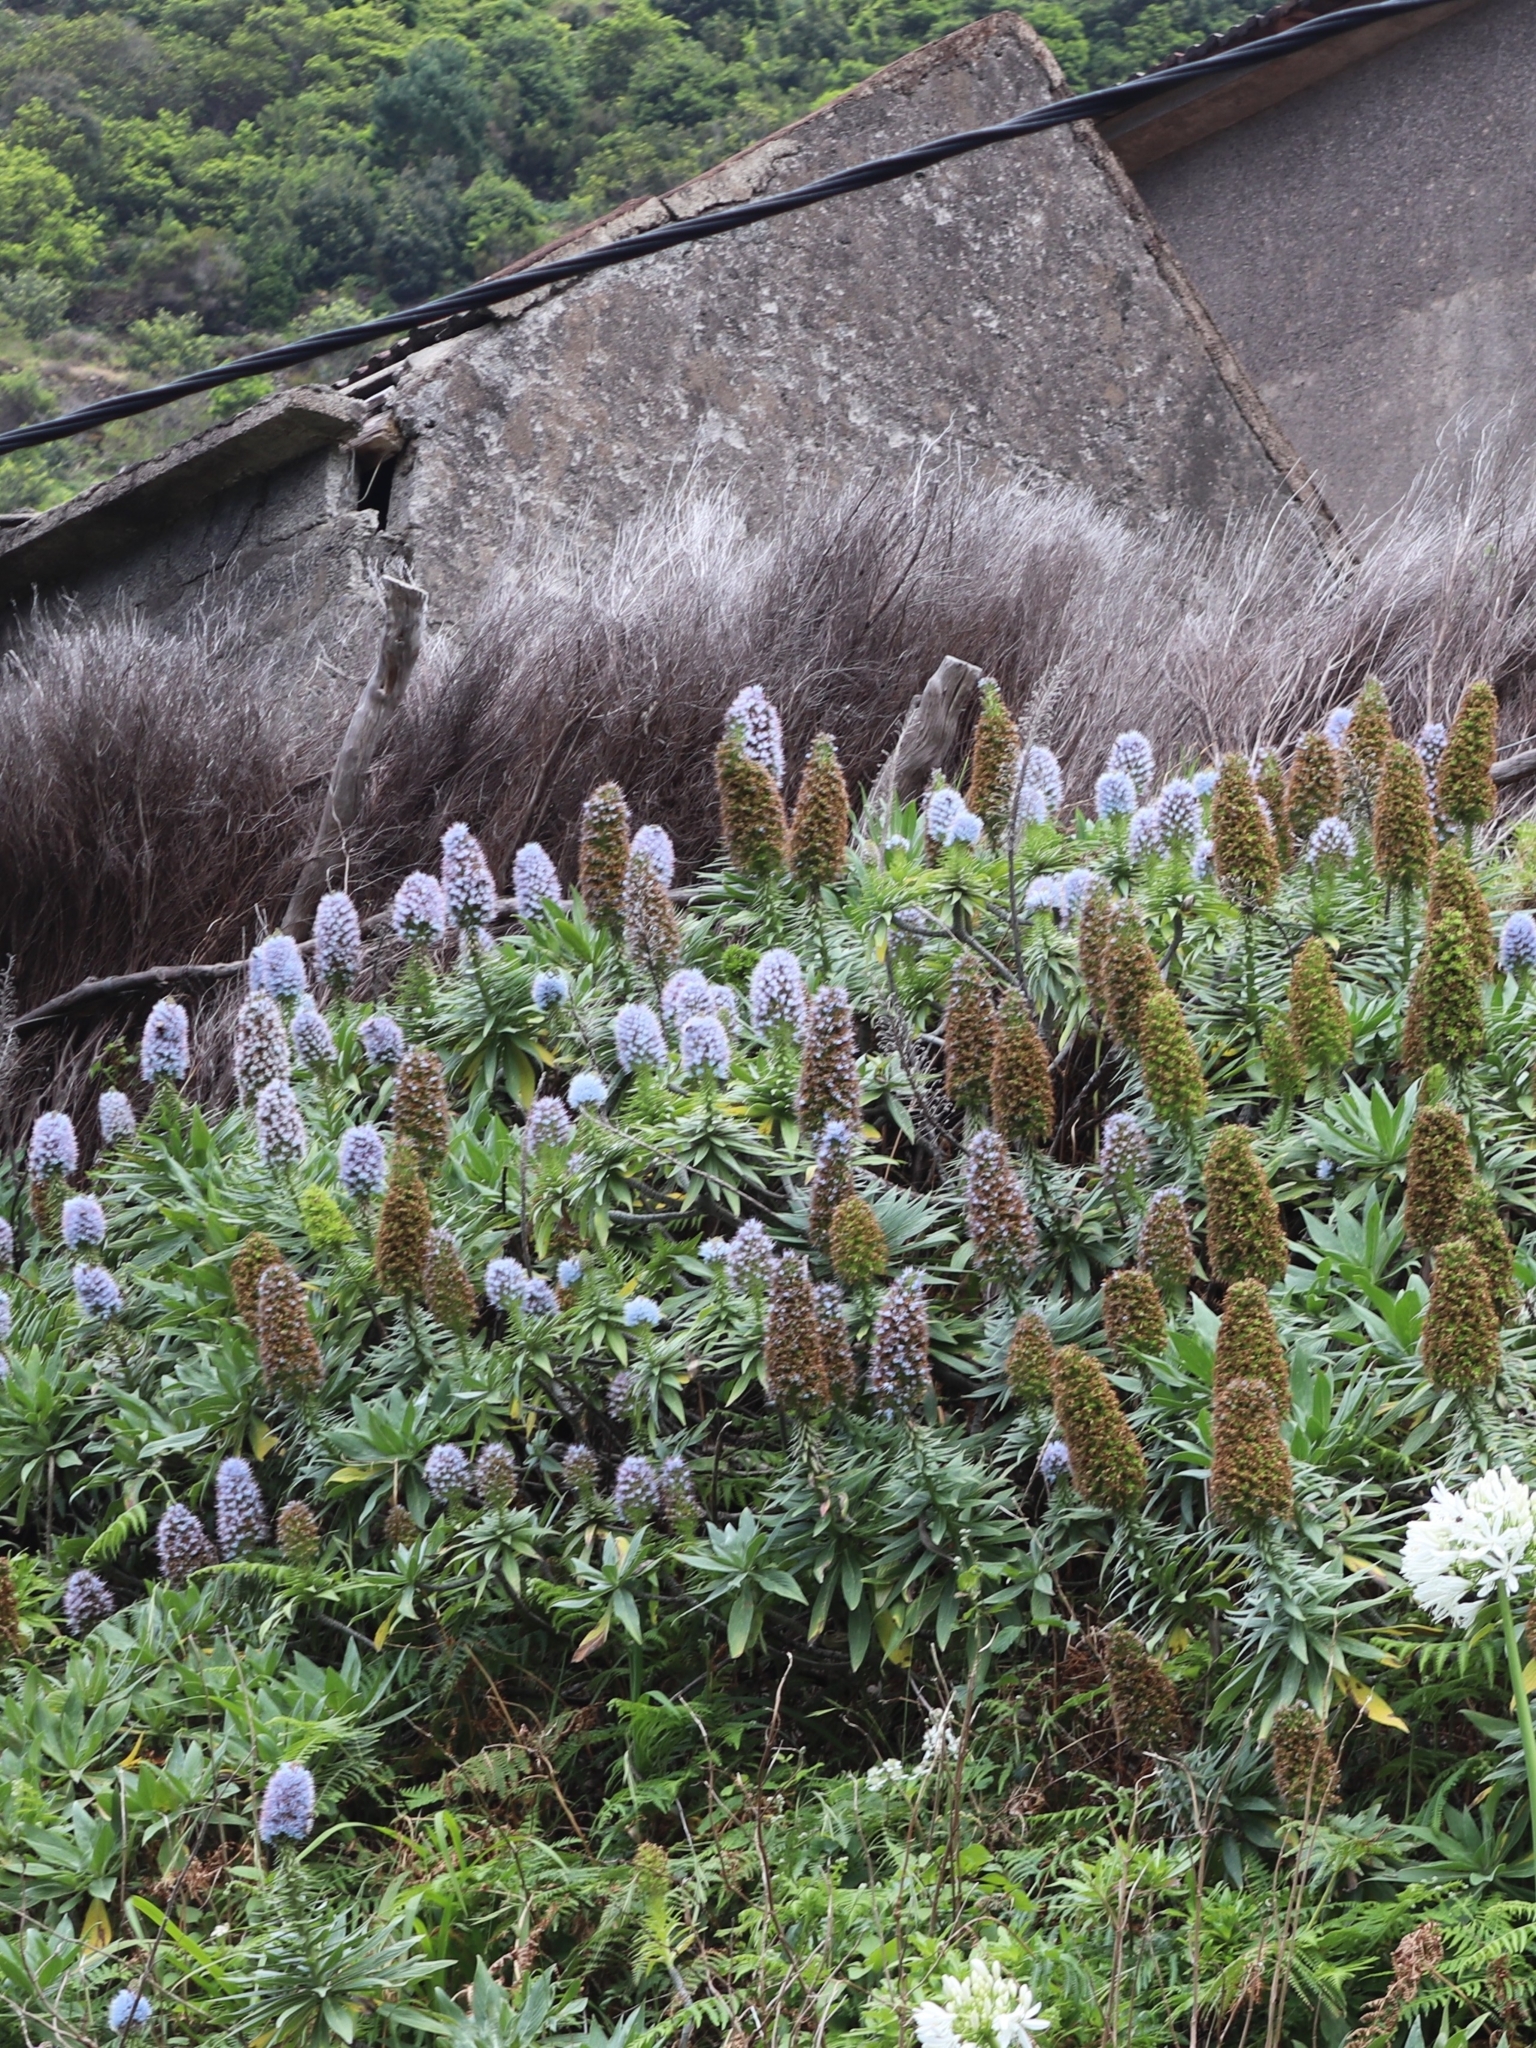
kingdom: Plantae
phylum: Tracheophyta
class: Magnoliopsida
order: Boraginales
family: Boraginaceae
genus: Echium
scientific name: Echium nervosum
